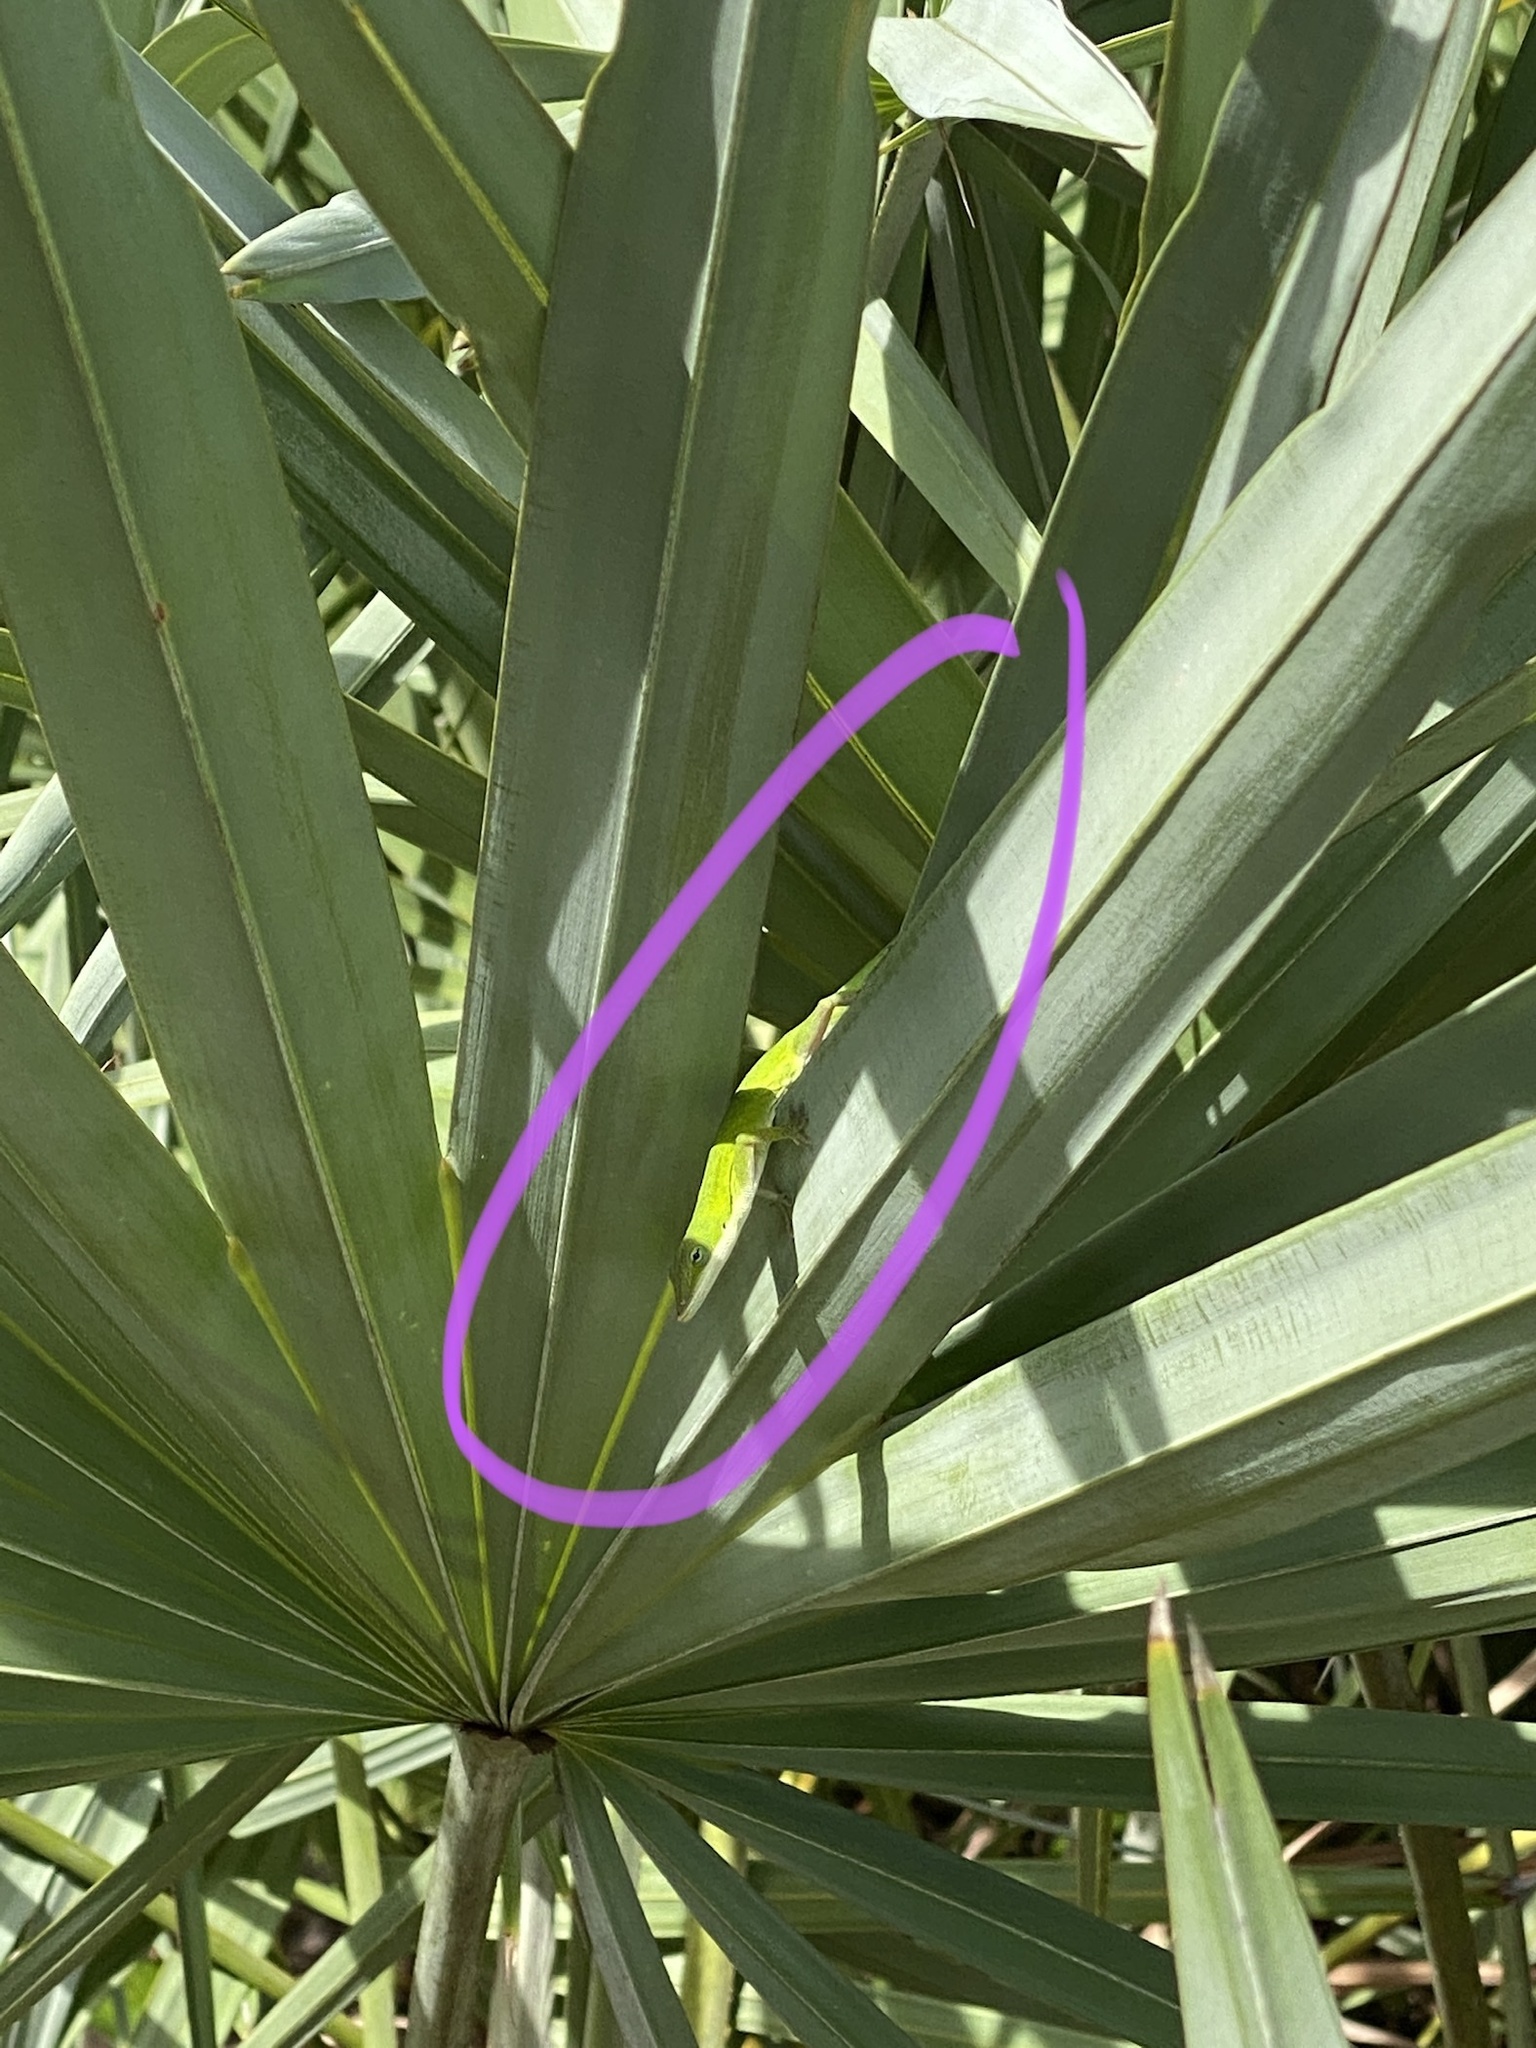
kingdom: Animalia
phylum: Chordata
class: Squamata
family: Dactyloidae
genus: Anolis
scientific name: Anolis carolinensis
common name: Green anole
